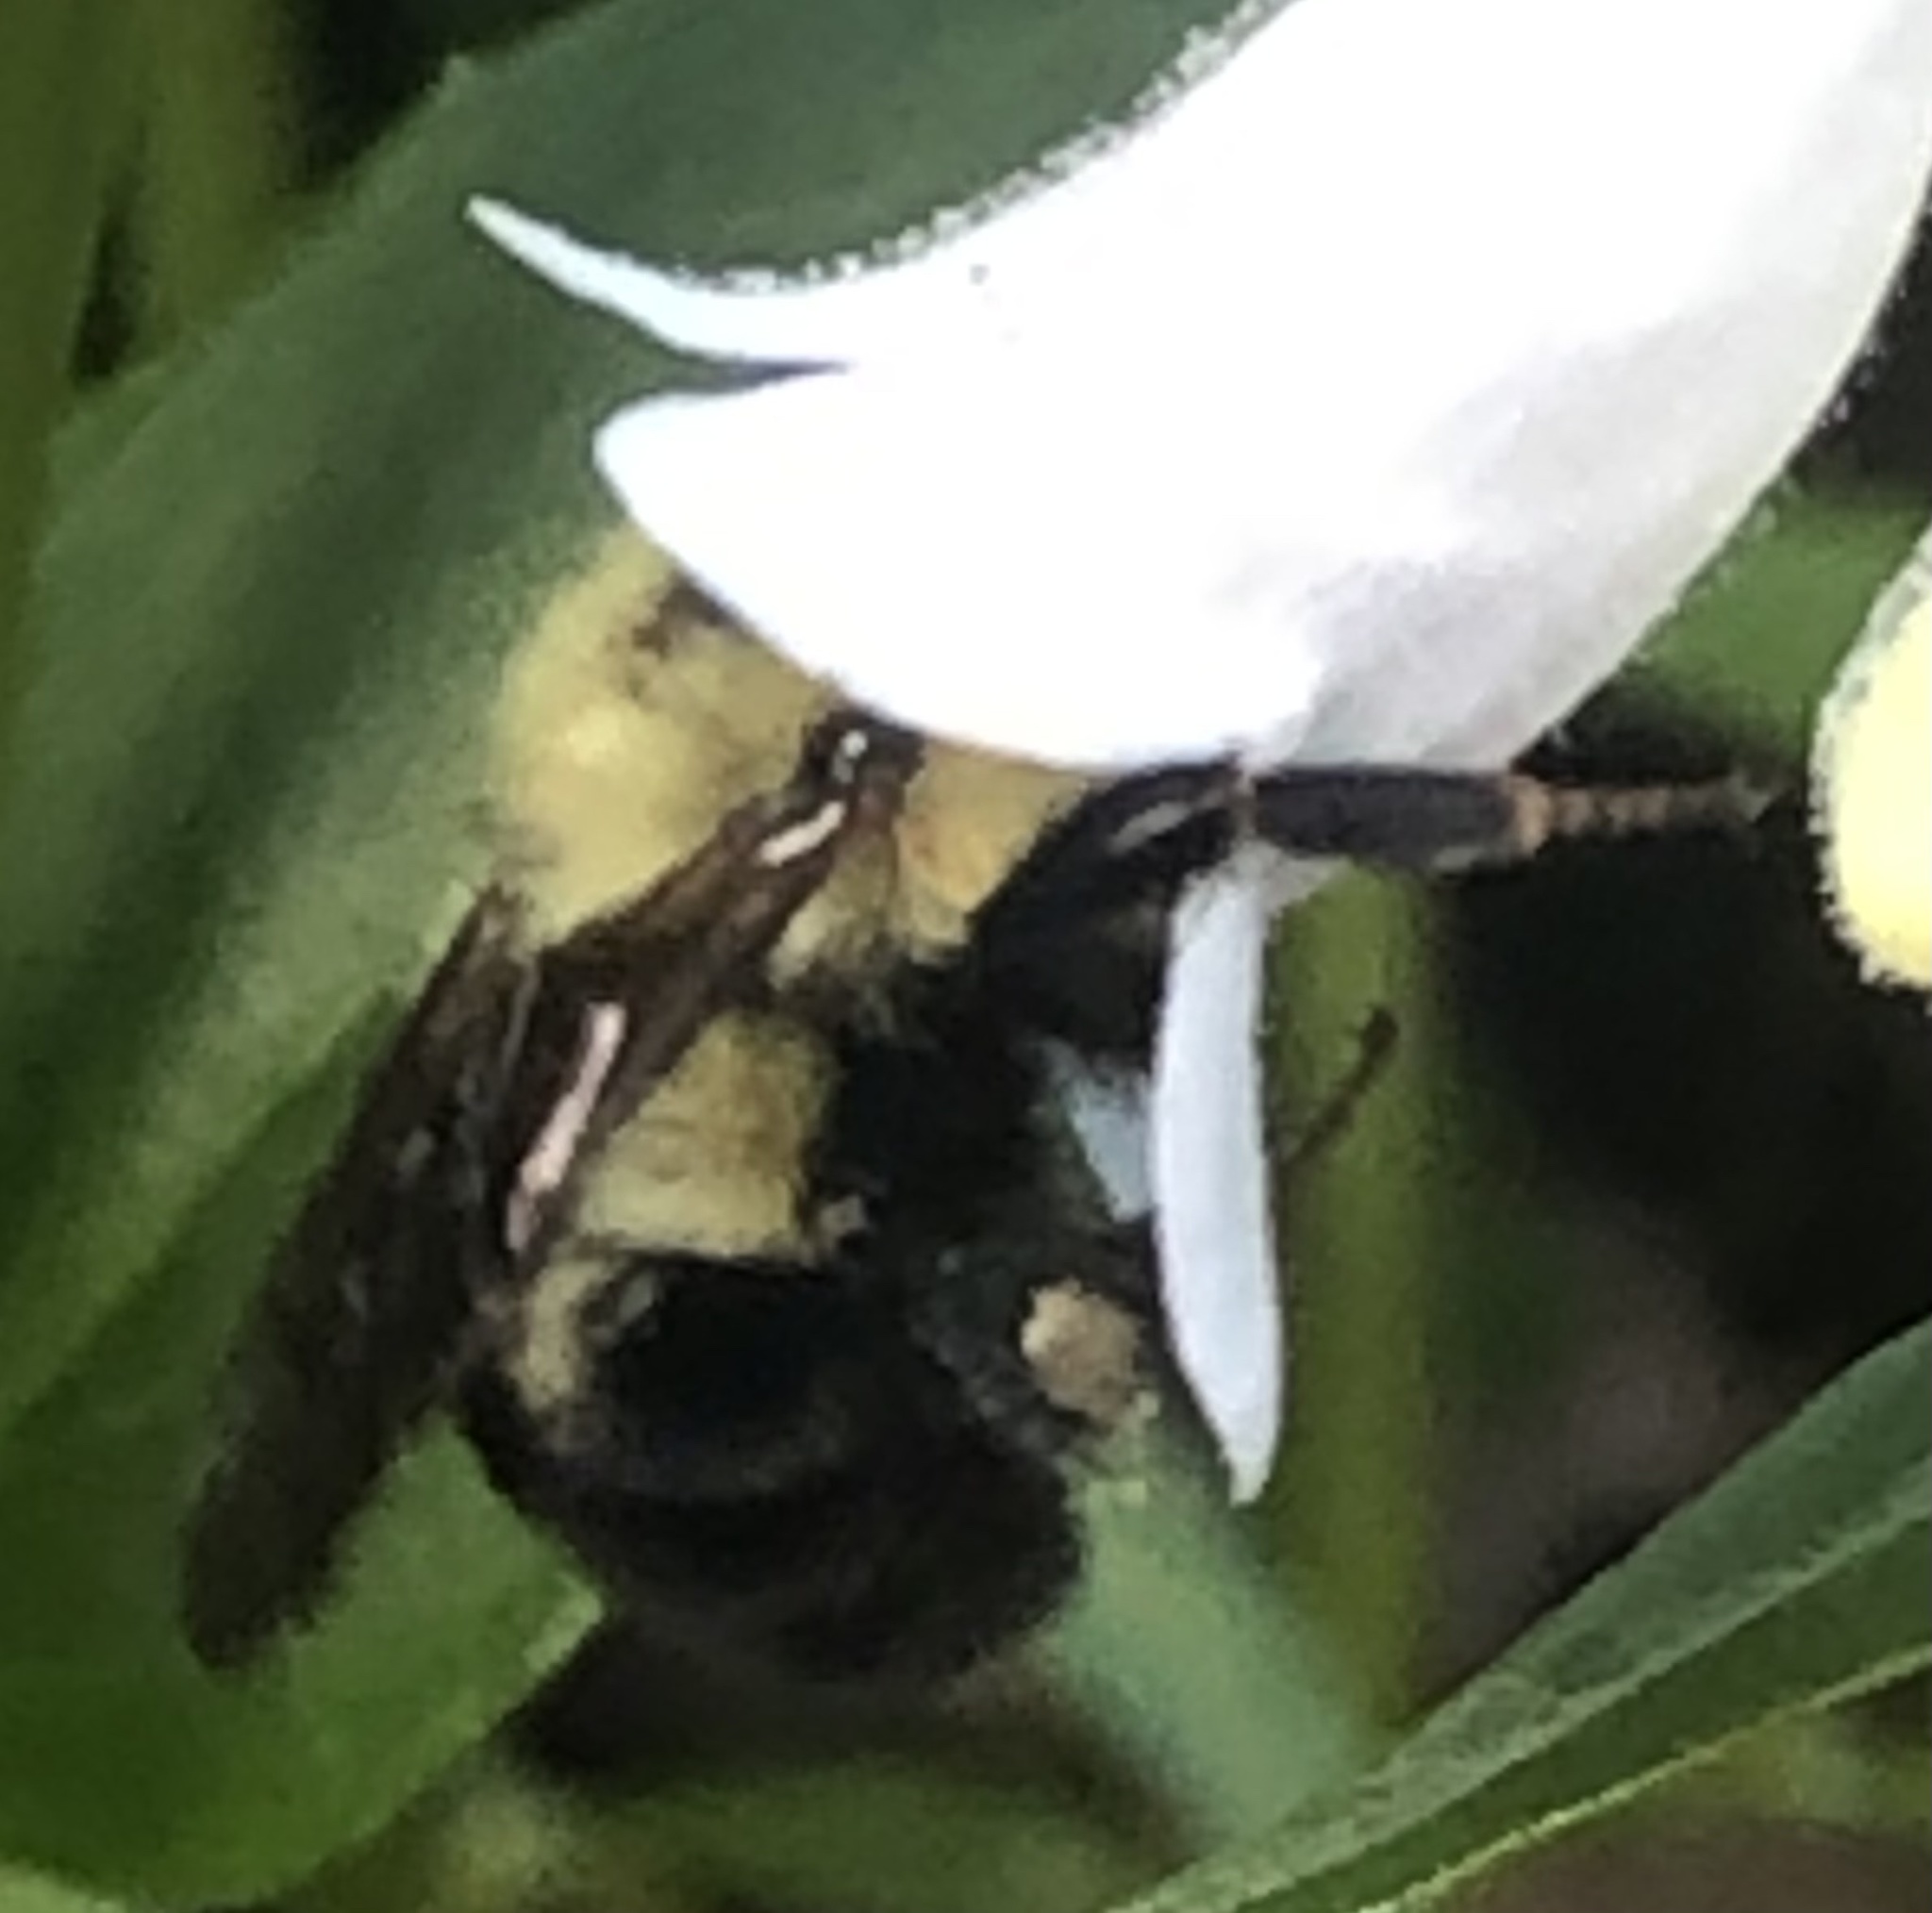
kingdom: Animalia
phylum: Arthropoda
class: Insecta
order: Hymenoptera
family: Apidae
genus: Bombus
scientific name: Bombus bimaculatus
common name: Two-spotted bumble bee
